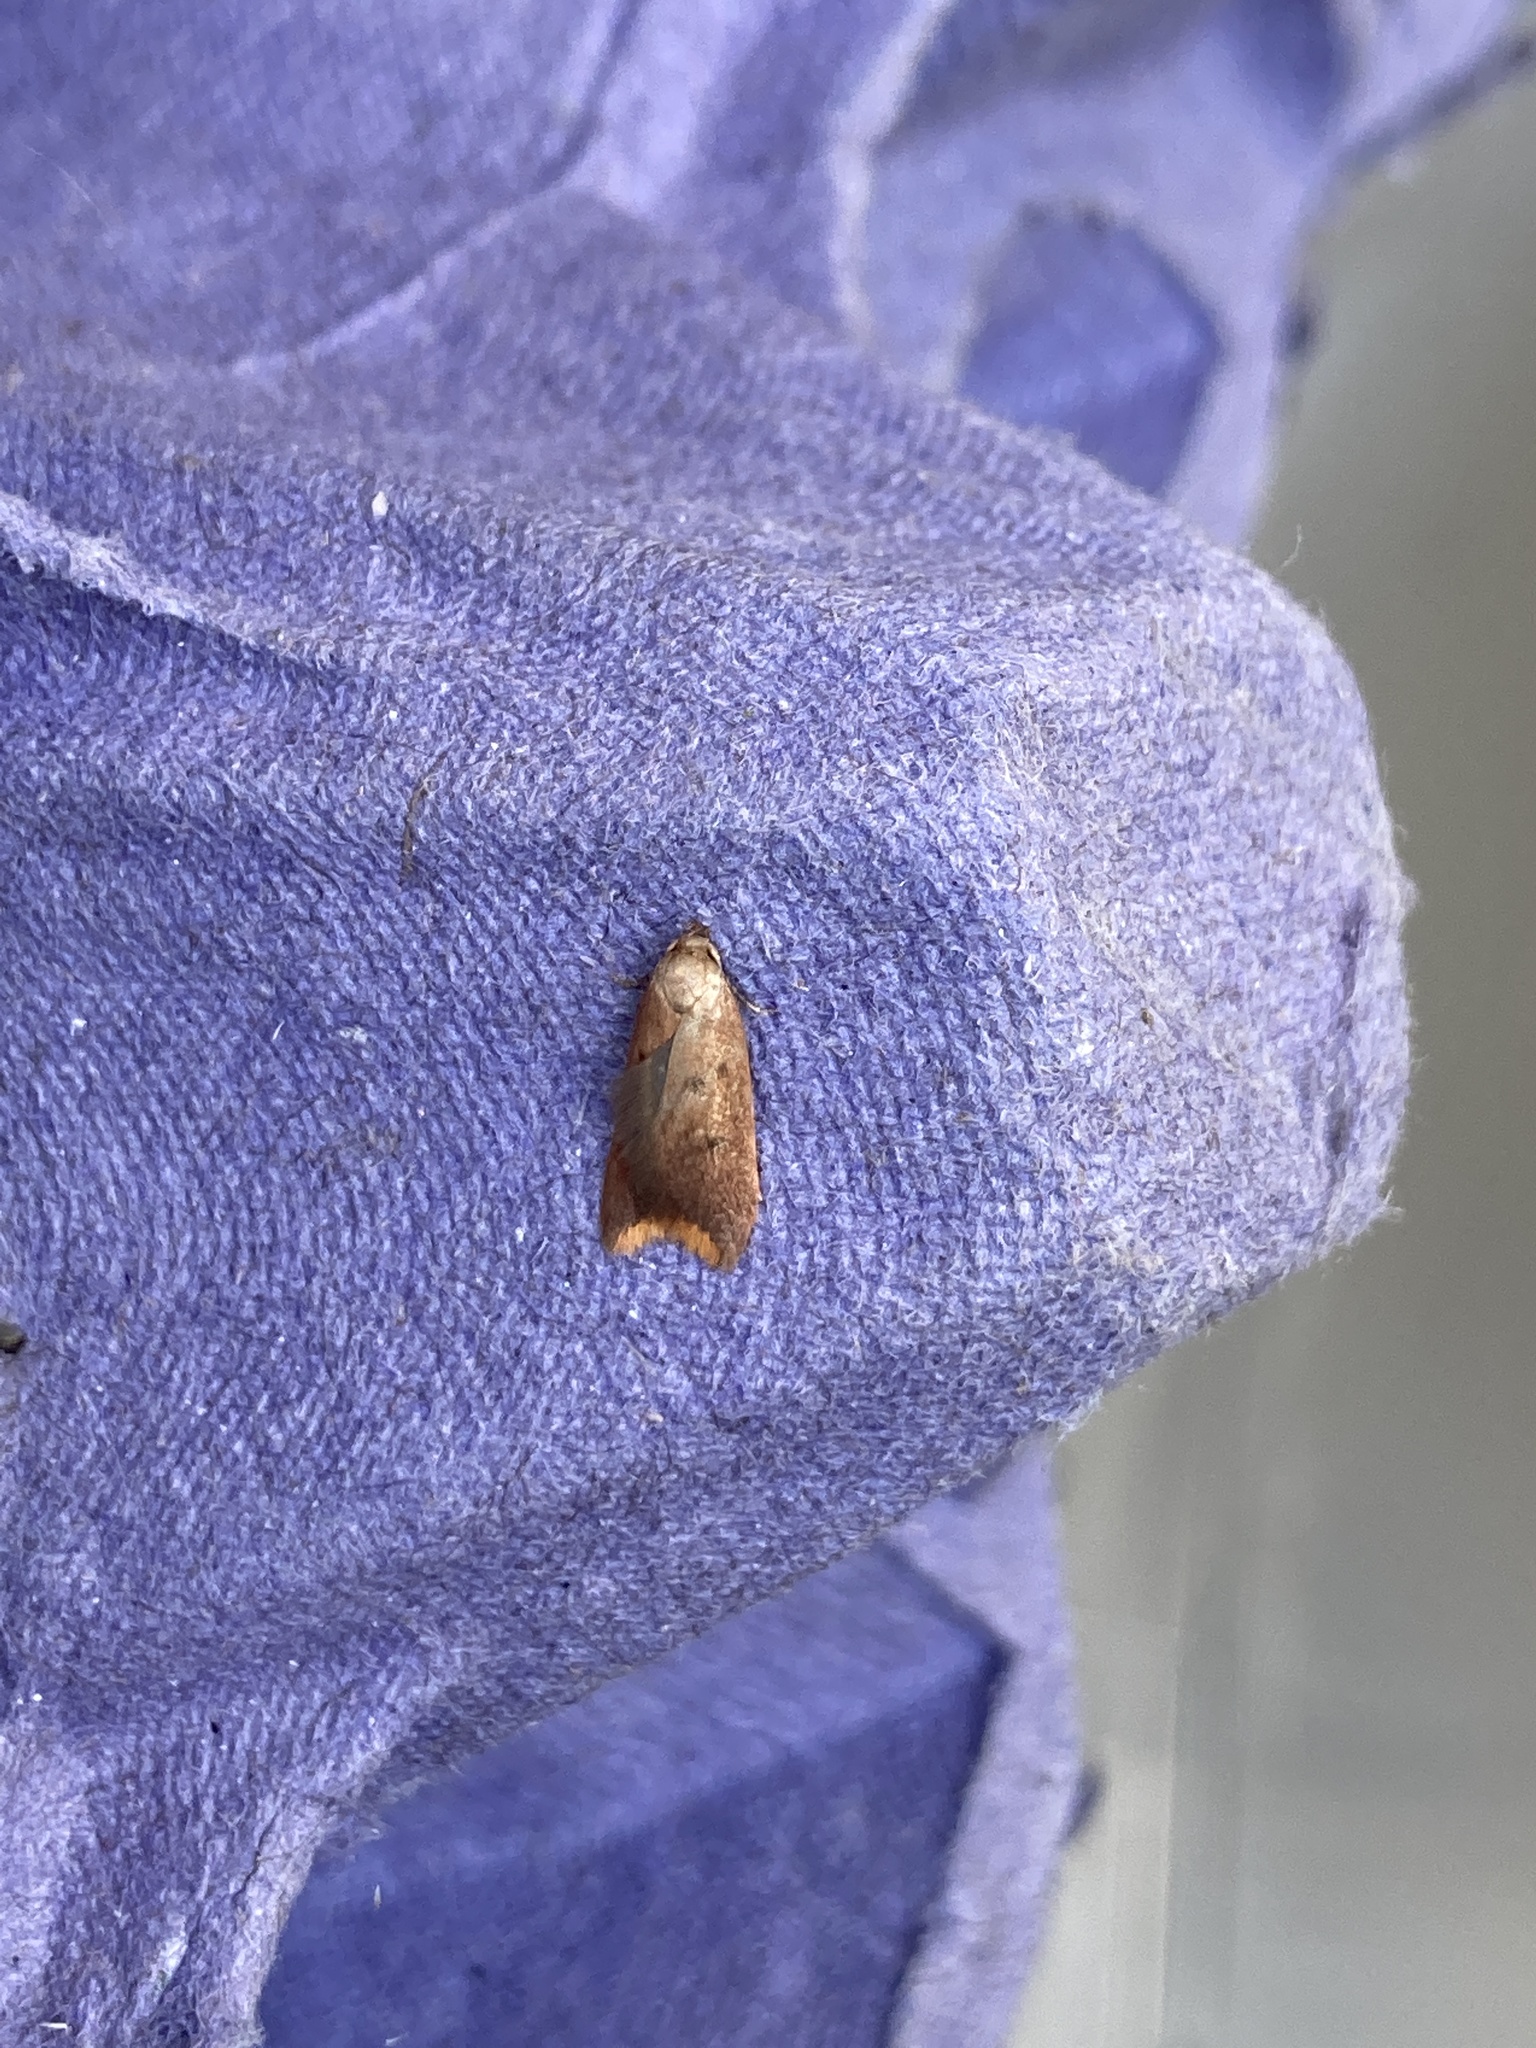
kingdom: Animalia
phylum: Arthropoda
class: Insecta
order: Lepidoptera
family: Oecophoridae
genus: Tachystola
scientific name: Tachystola acroxantha
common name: Ruddy streak
